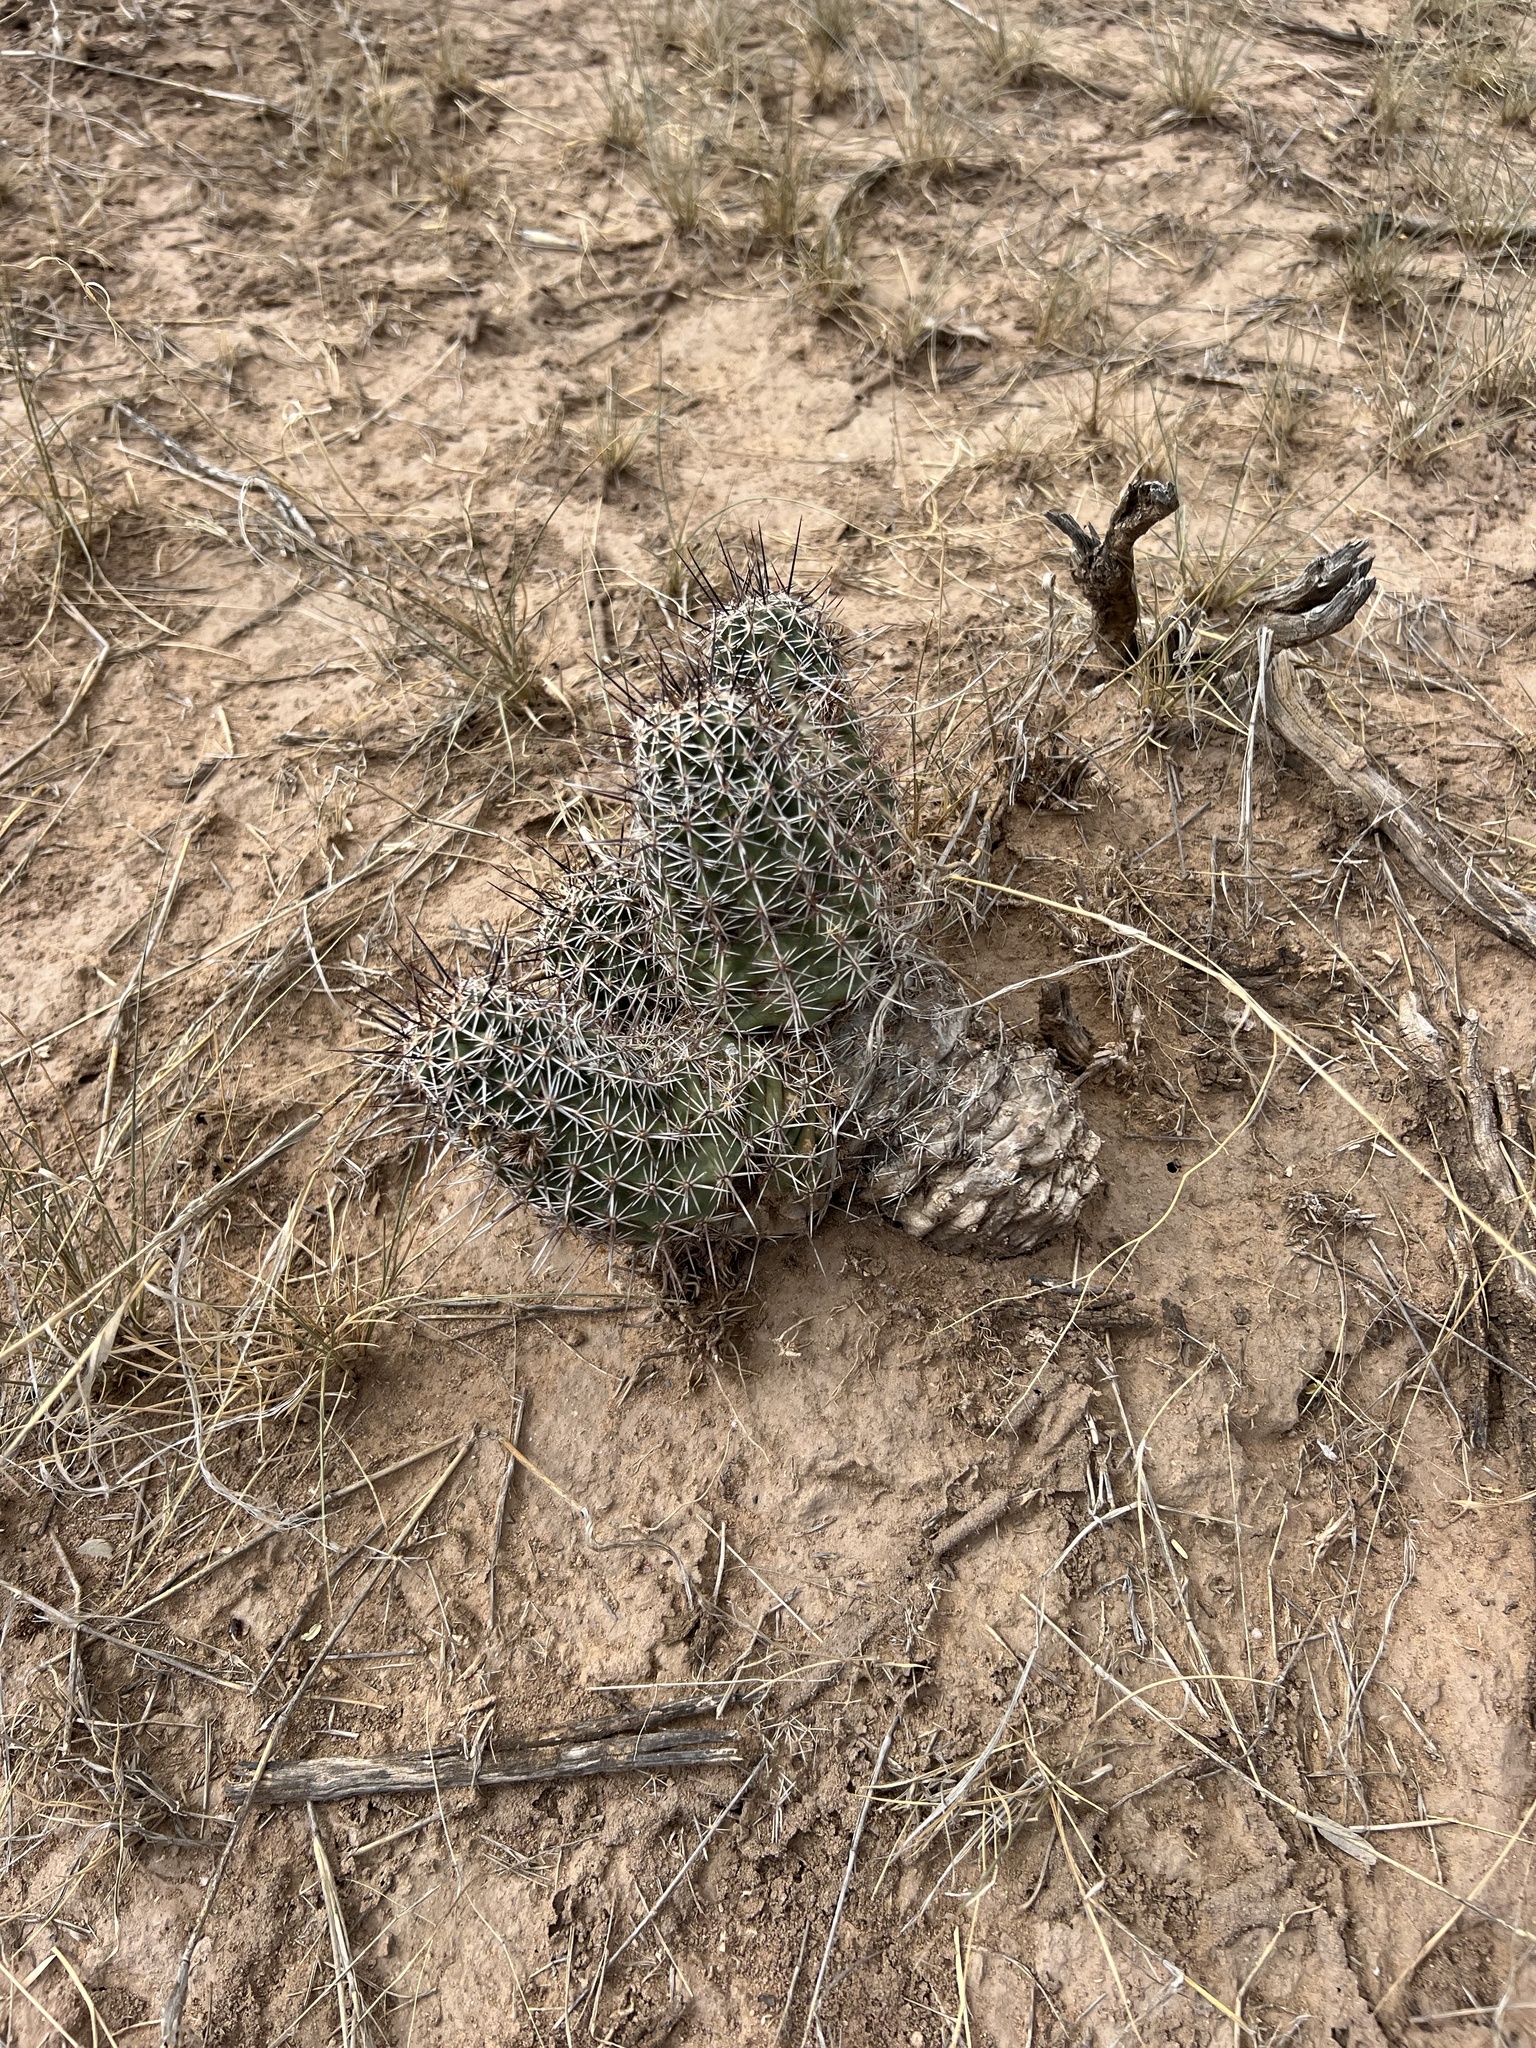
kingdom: Plantae
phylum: Tracheophyta
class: Magnoliopsida
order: Caryophyllales
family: Cactaceae
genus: Echinocereus
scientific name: Echinocereus fendleri
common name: Fendler's hedgehog cactus
